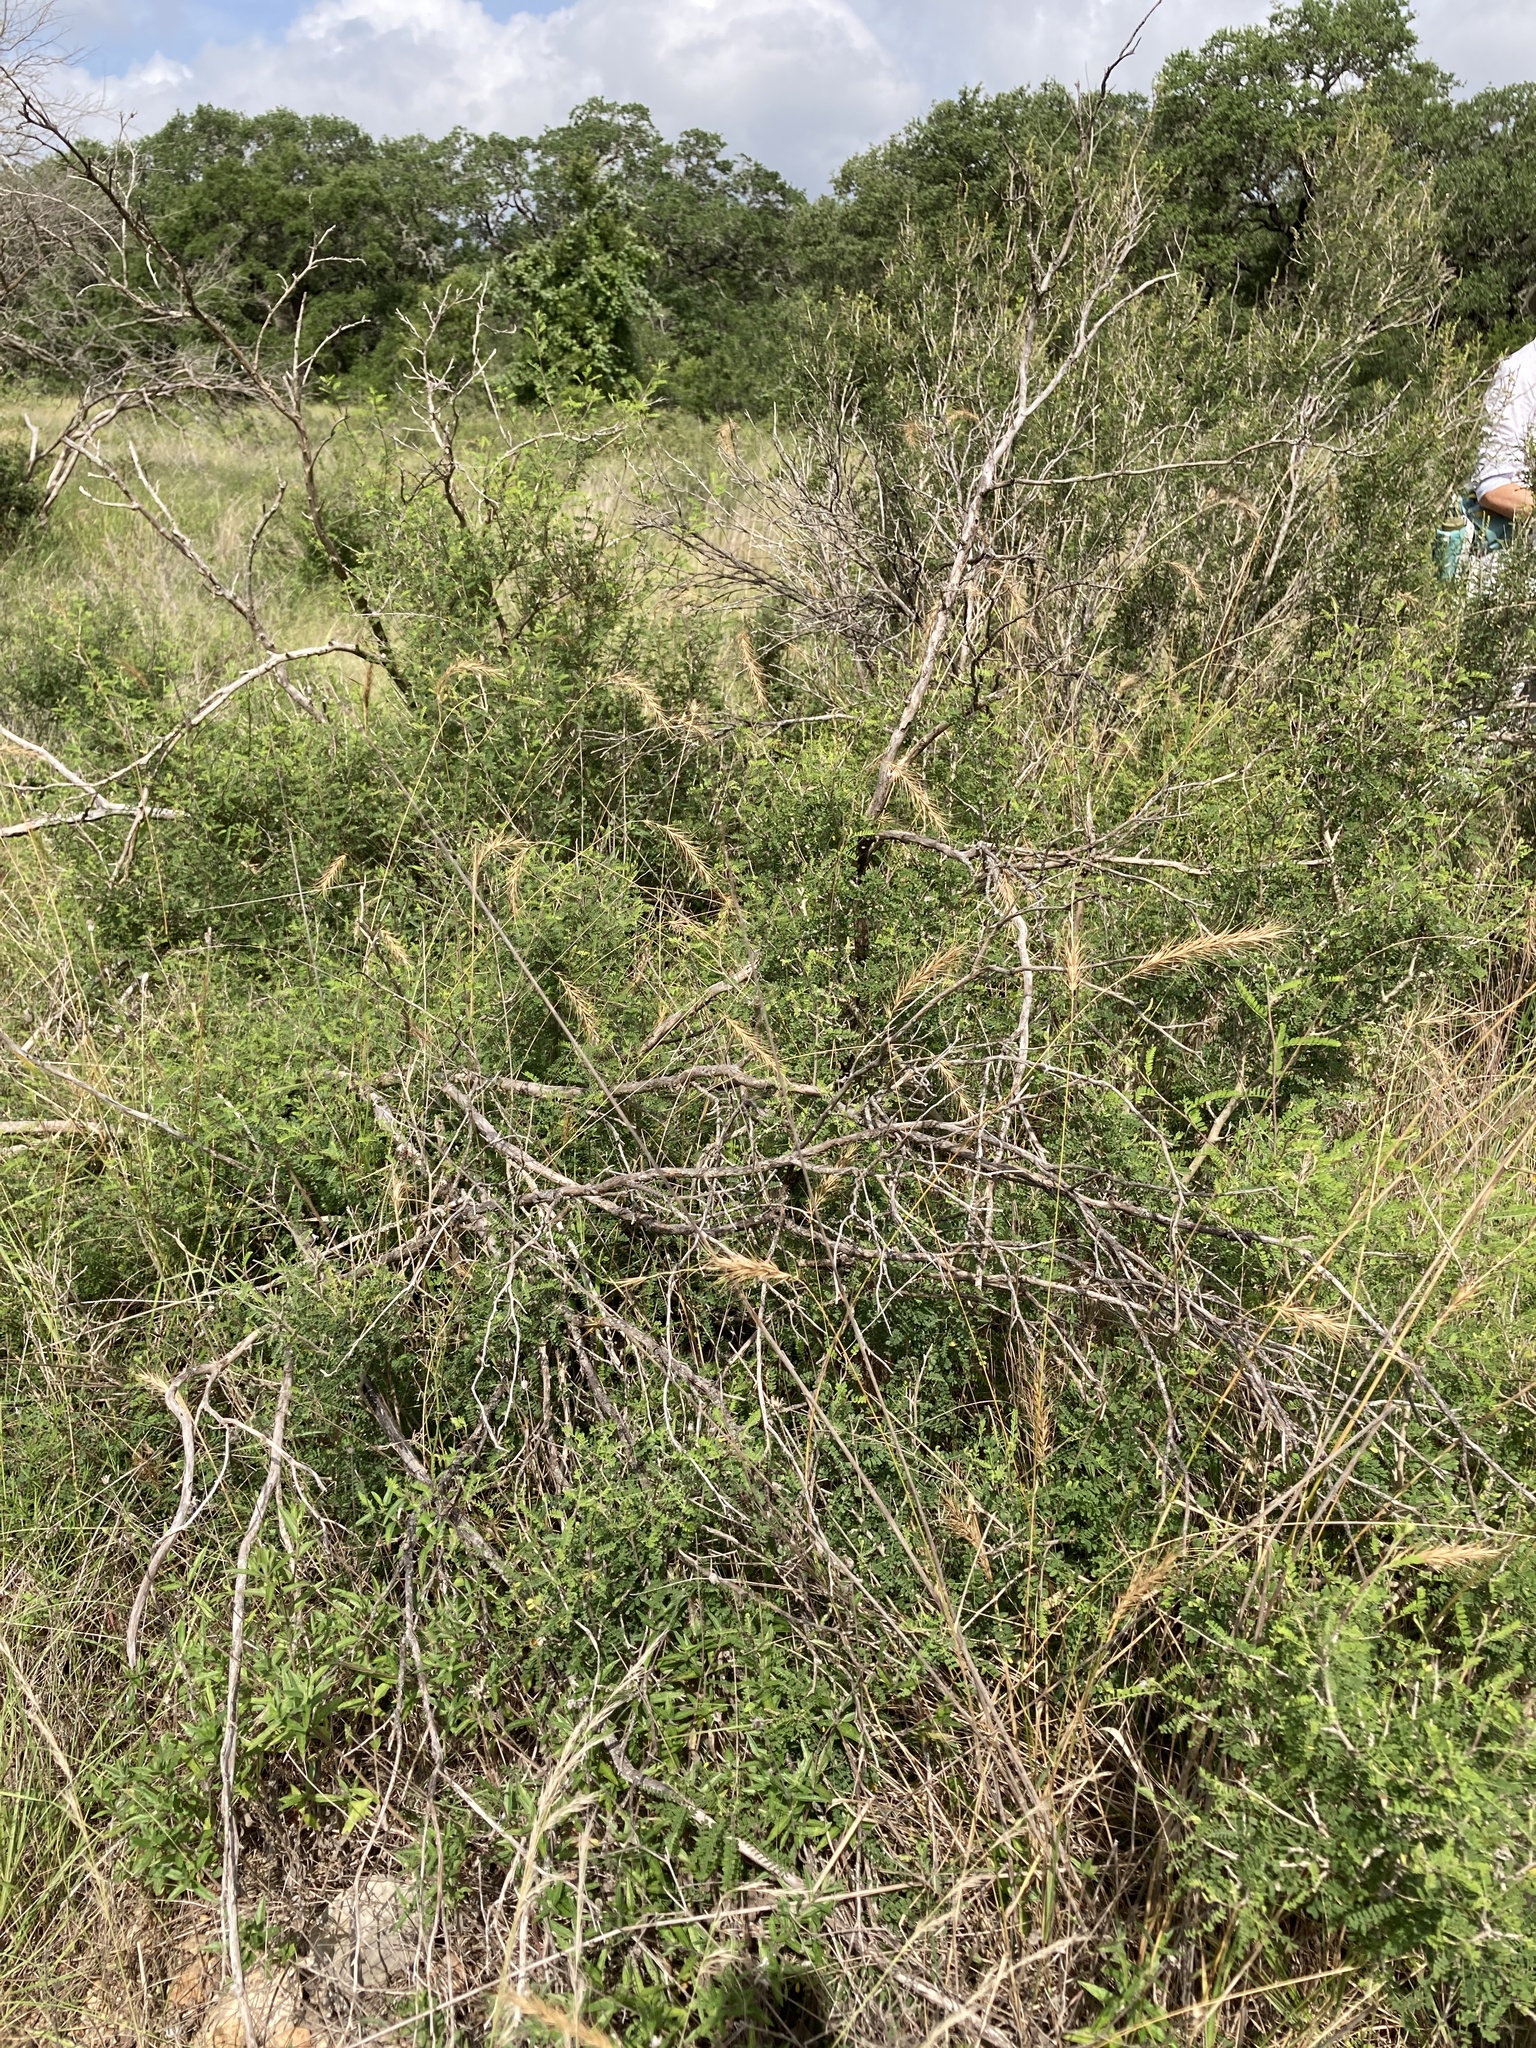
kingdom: Plantae
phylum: Tracheophyta
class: Liliopsida
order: Poales
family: Poaceae
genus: Elymus
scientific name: Elymus canadensis
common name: Canada wild rye
